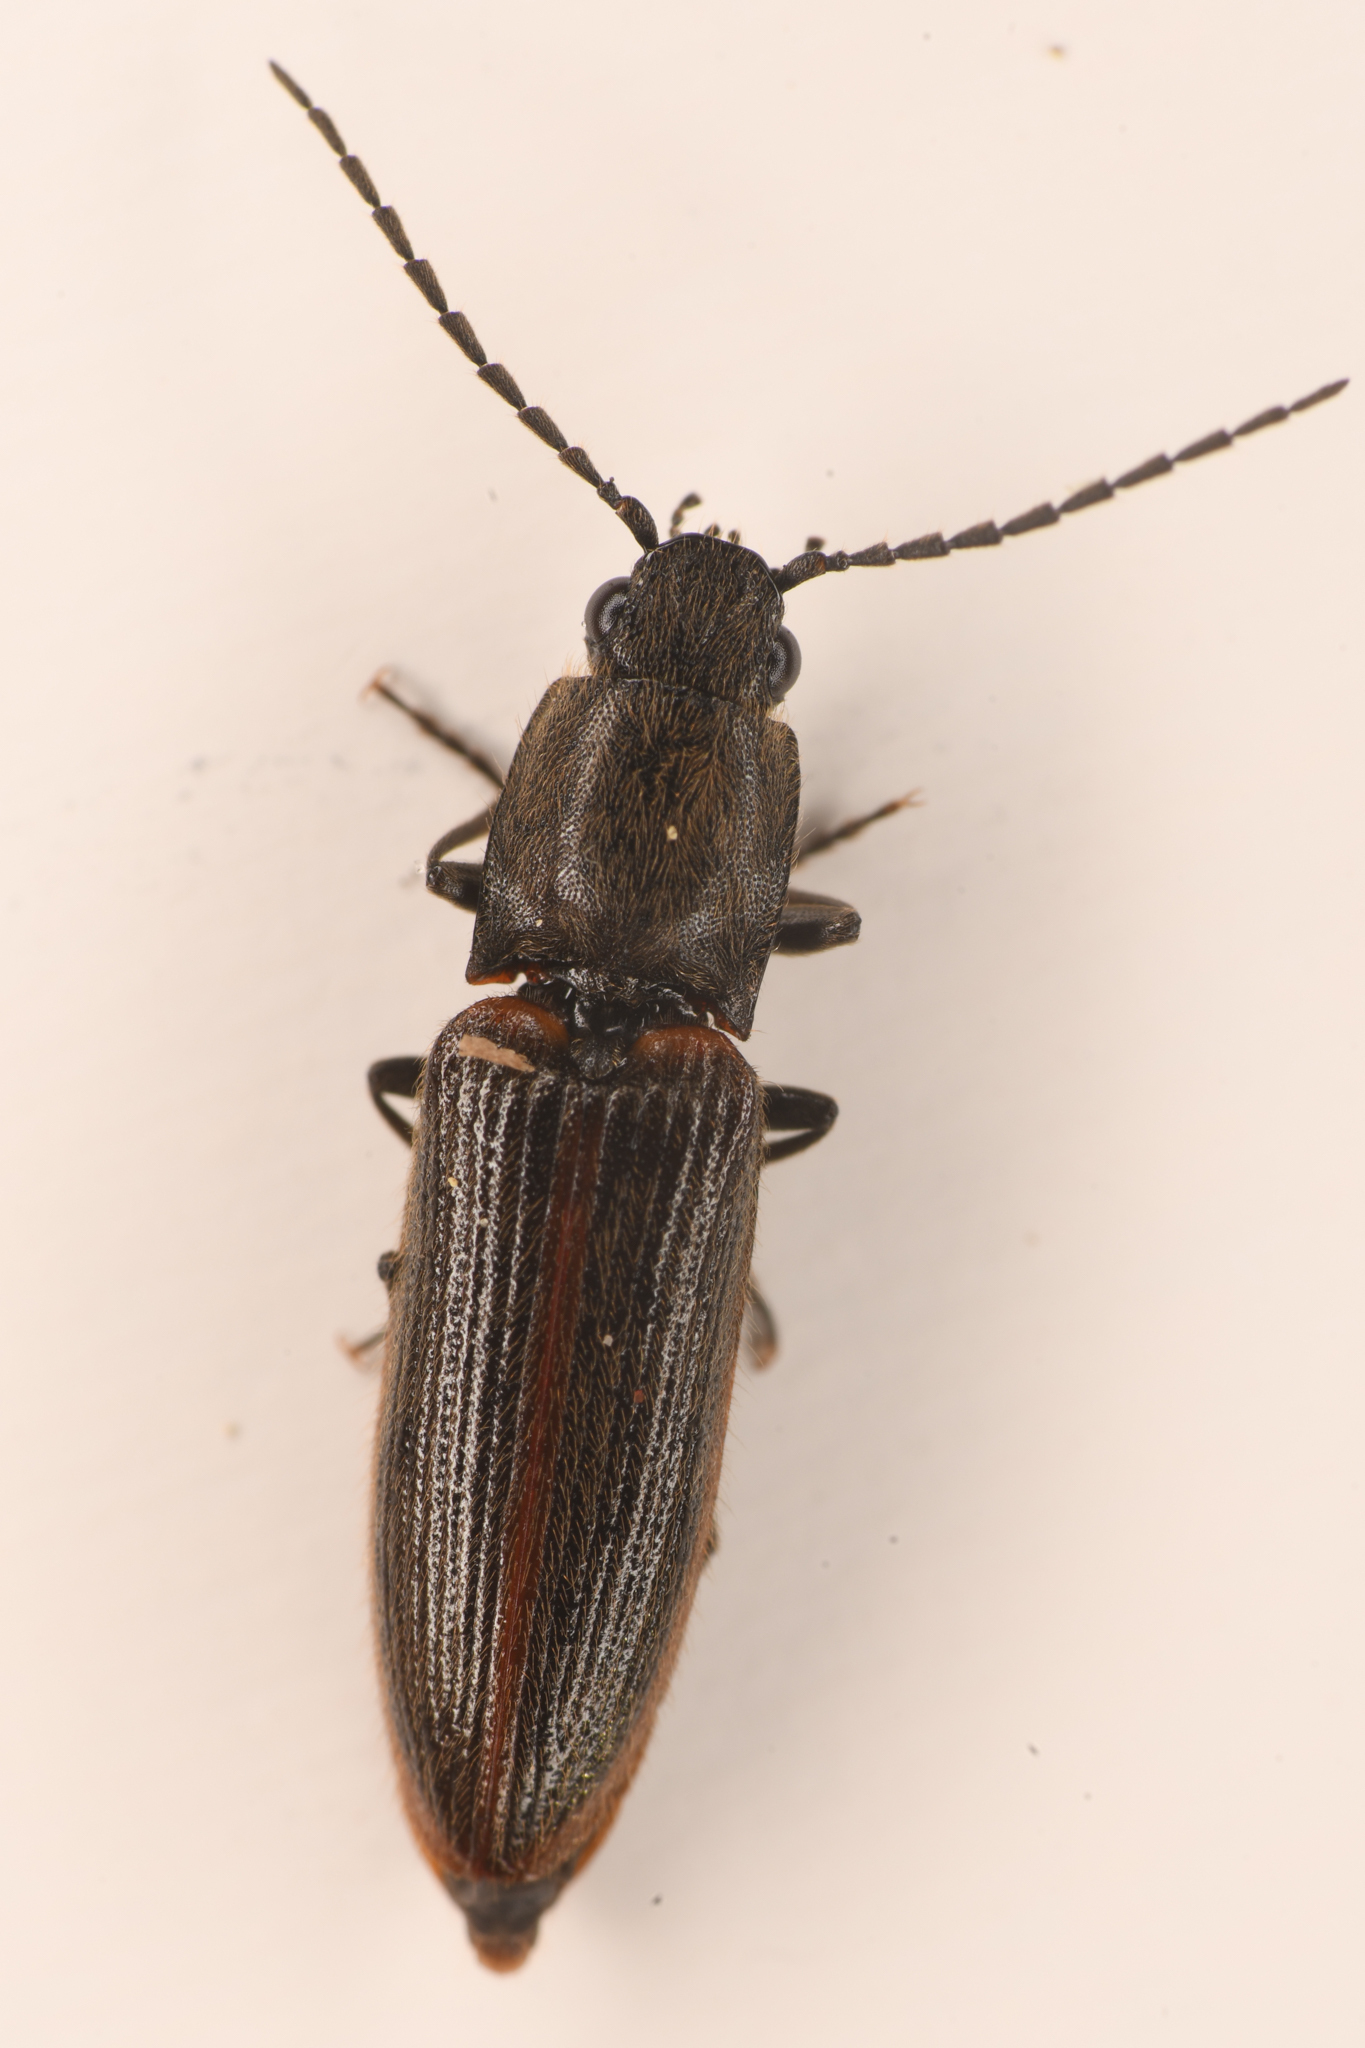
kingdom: Animalia
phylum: Arthropoda
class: Insecta
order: Coleoptera
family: Elateridae
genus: Athous
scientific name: Athous sierrae
